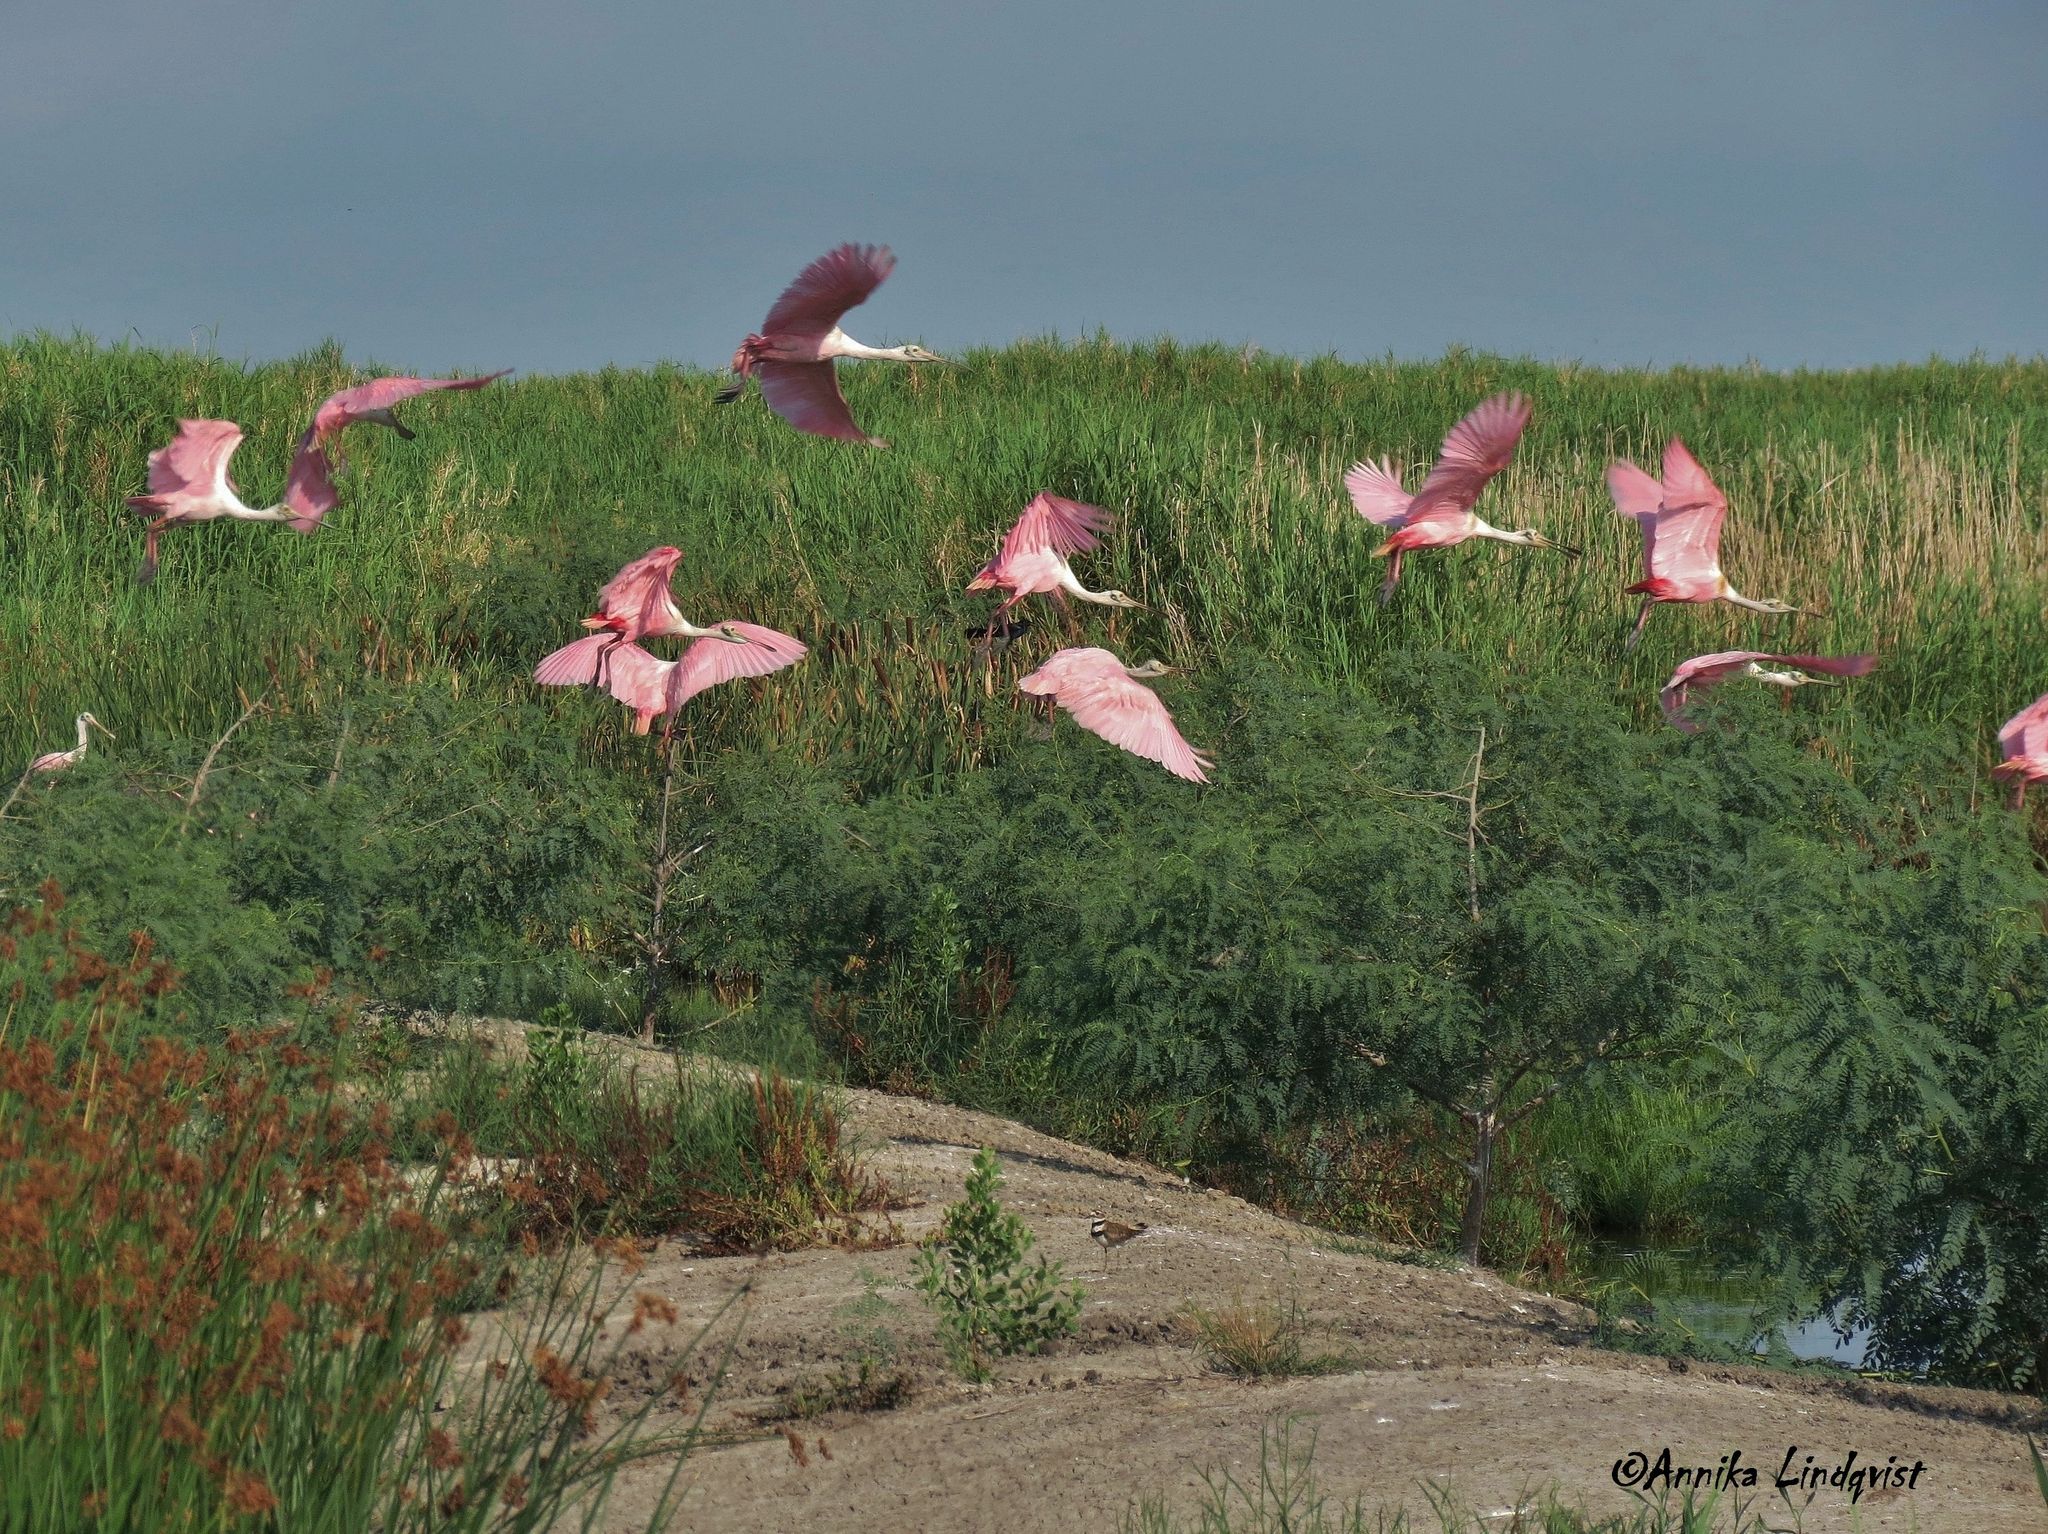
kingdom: Animalia
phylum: Chordata
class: Aves
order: Pelecaniformes
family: Threskiornithidae
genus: Platalea
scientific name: Platalea ajaja
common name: Roseate spoonbill
